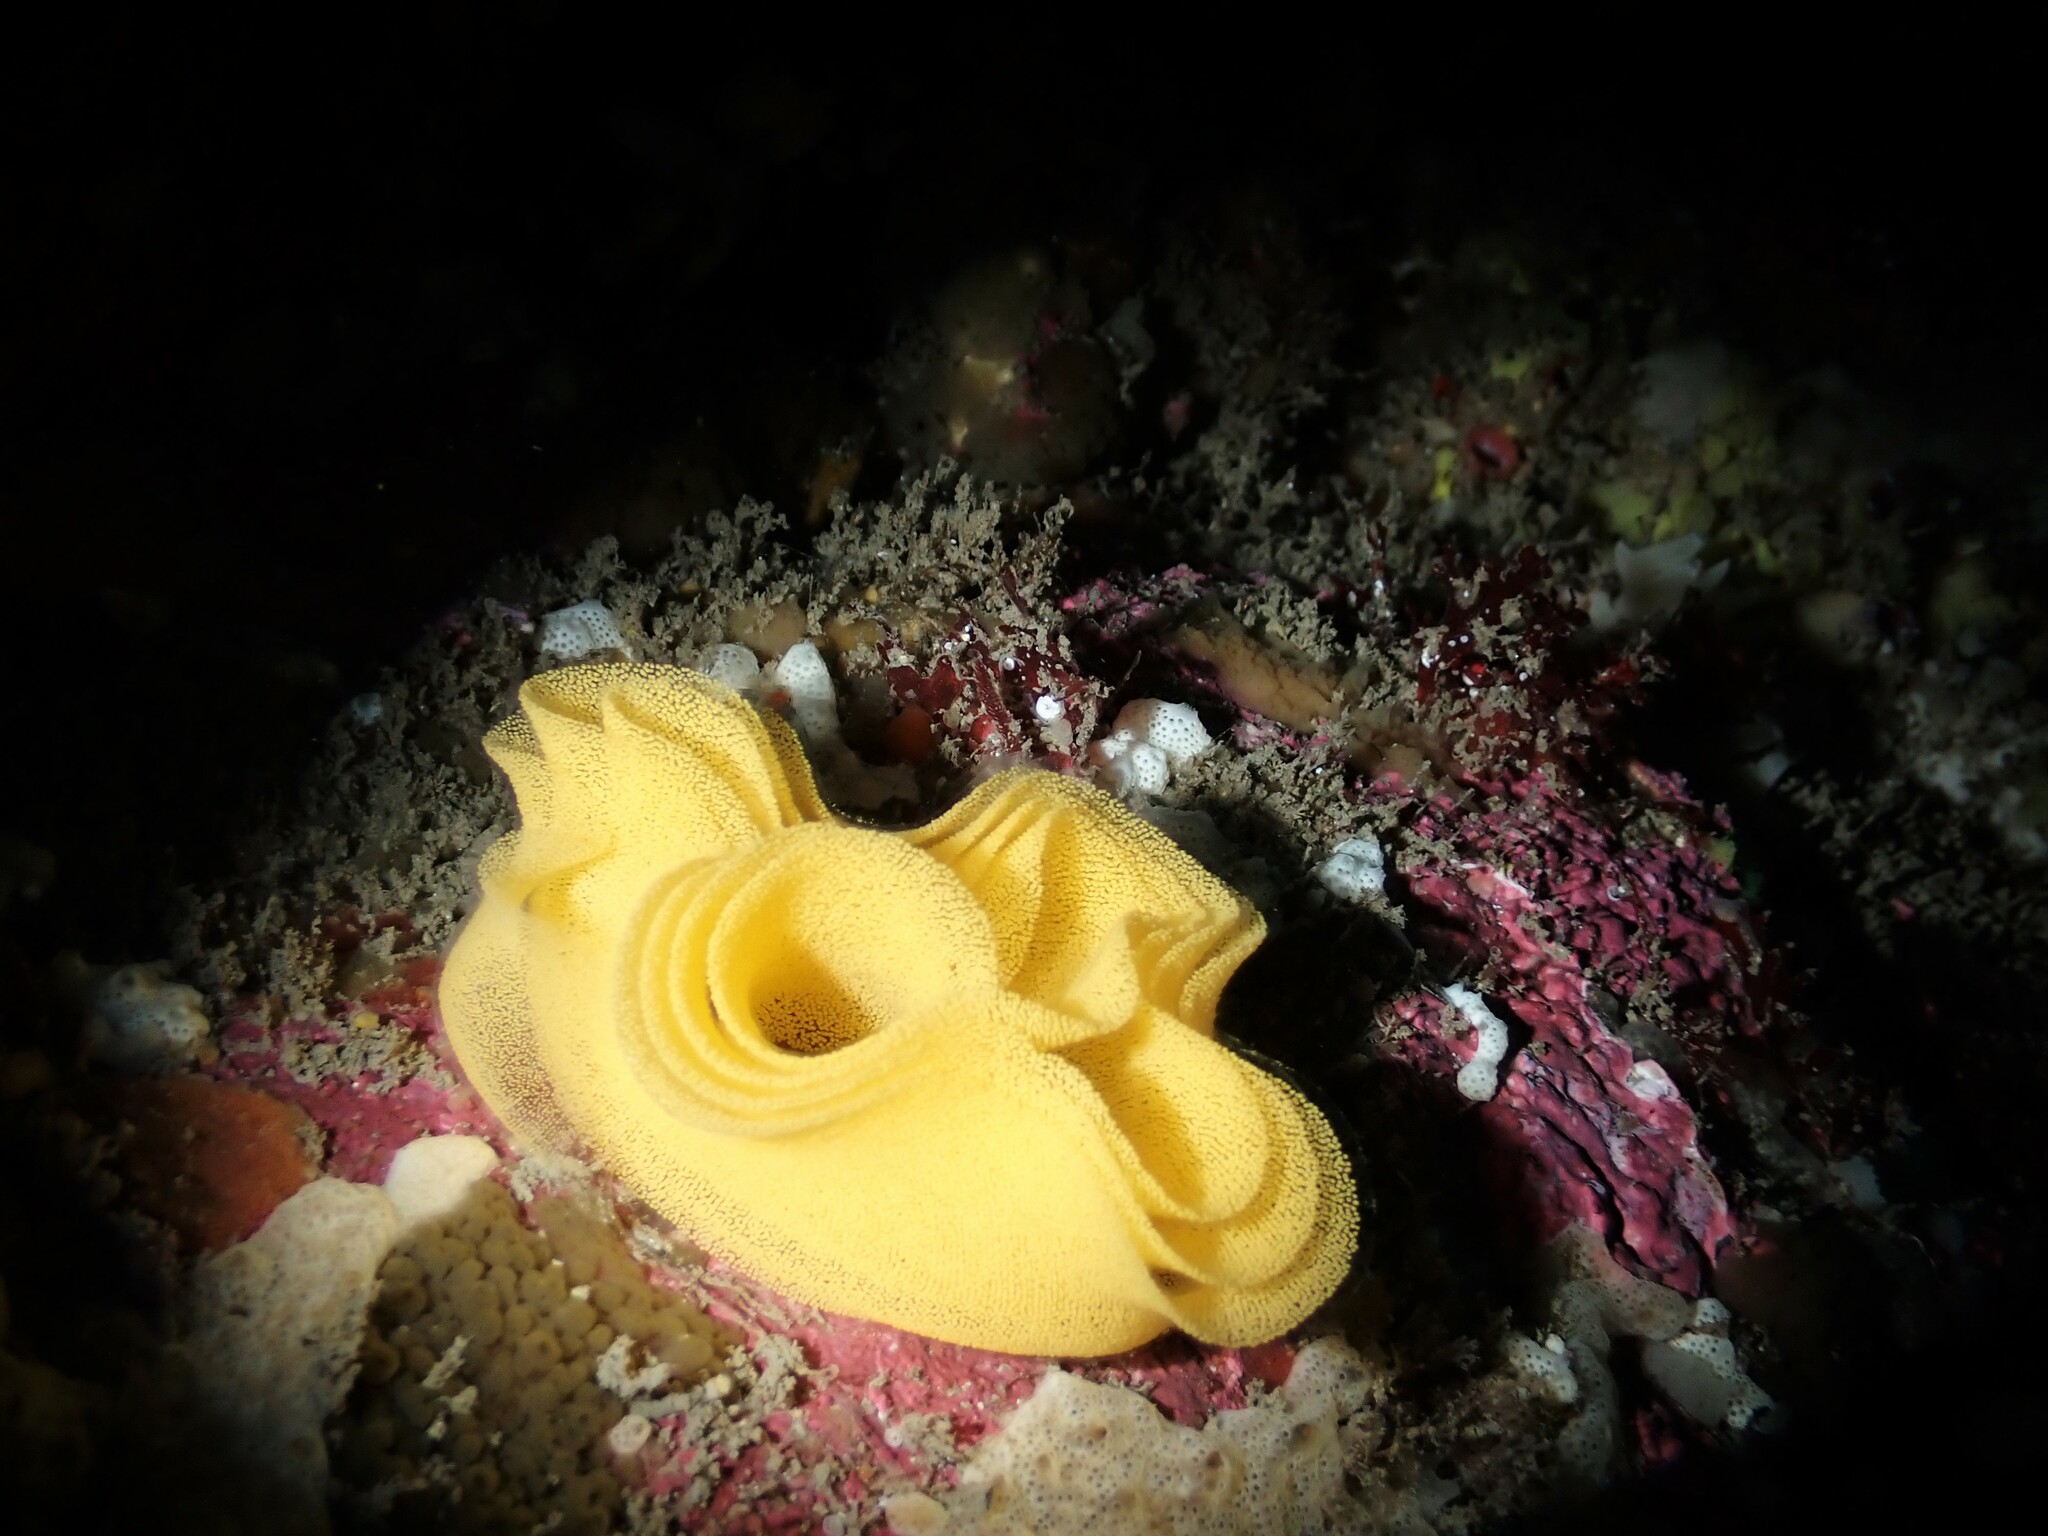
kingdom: Animalia
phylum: Mollusca
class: Gastropoda
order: Nudibranchia
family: Dorididae
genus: Doris
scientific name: Doris wellingtonensis
